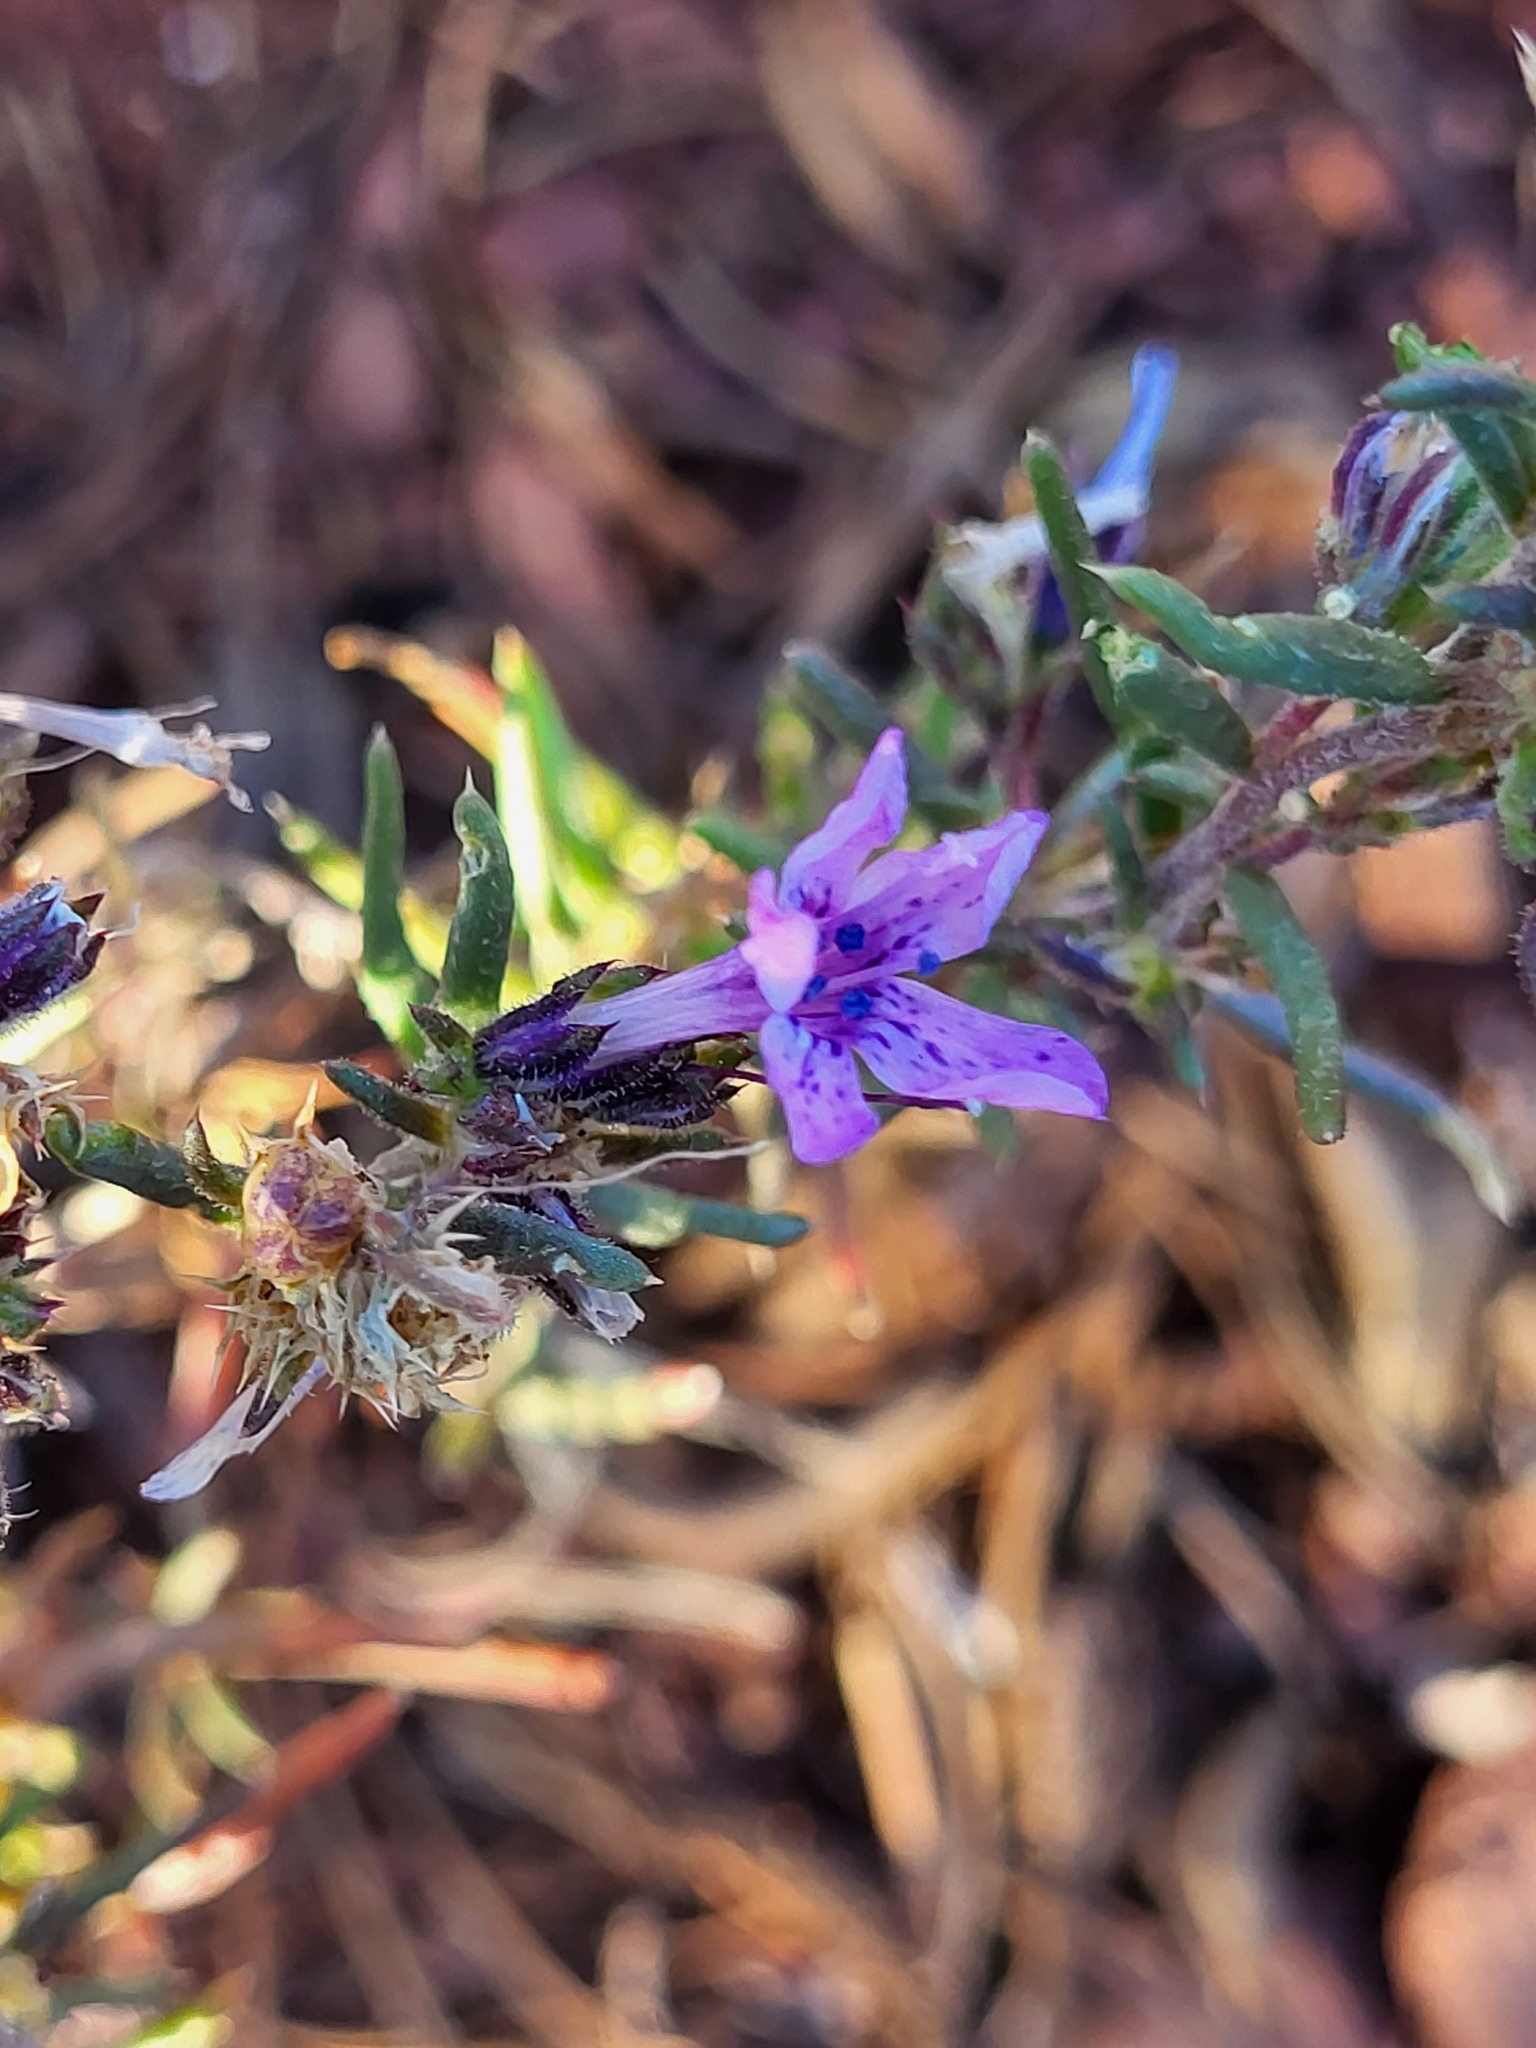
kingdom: Plantae
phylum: Tracheophyta
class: Magnoliopsida
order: Ericales
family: Polemoniaceae
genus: Ipomopsis
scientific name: Ipomopsis multiflora
